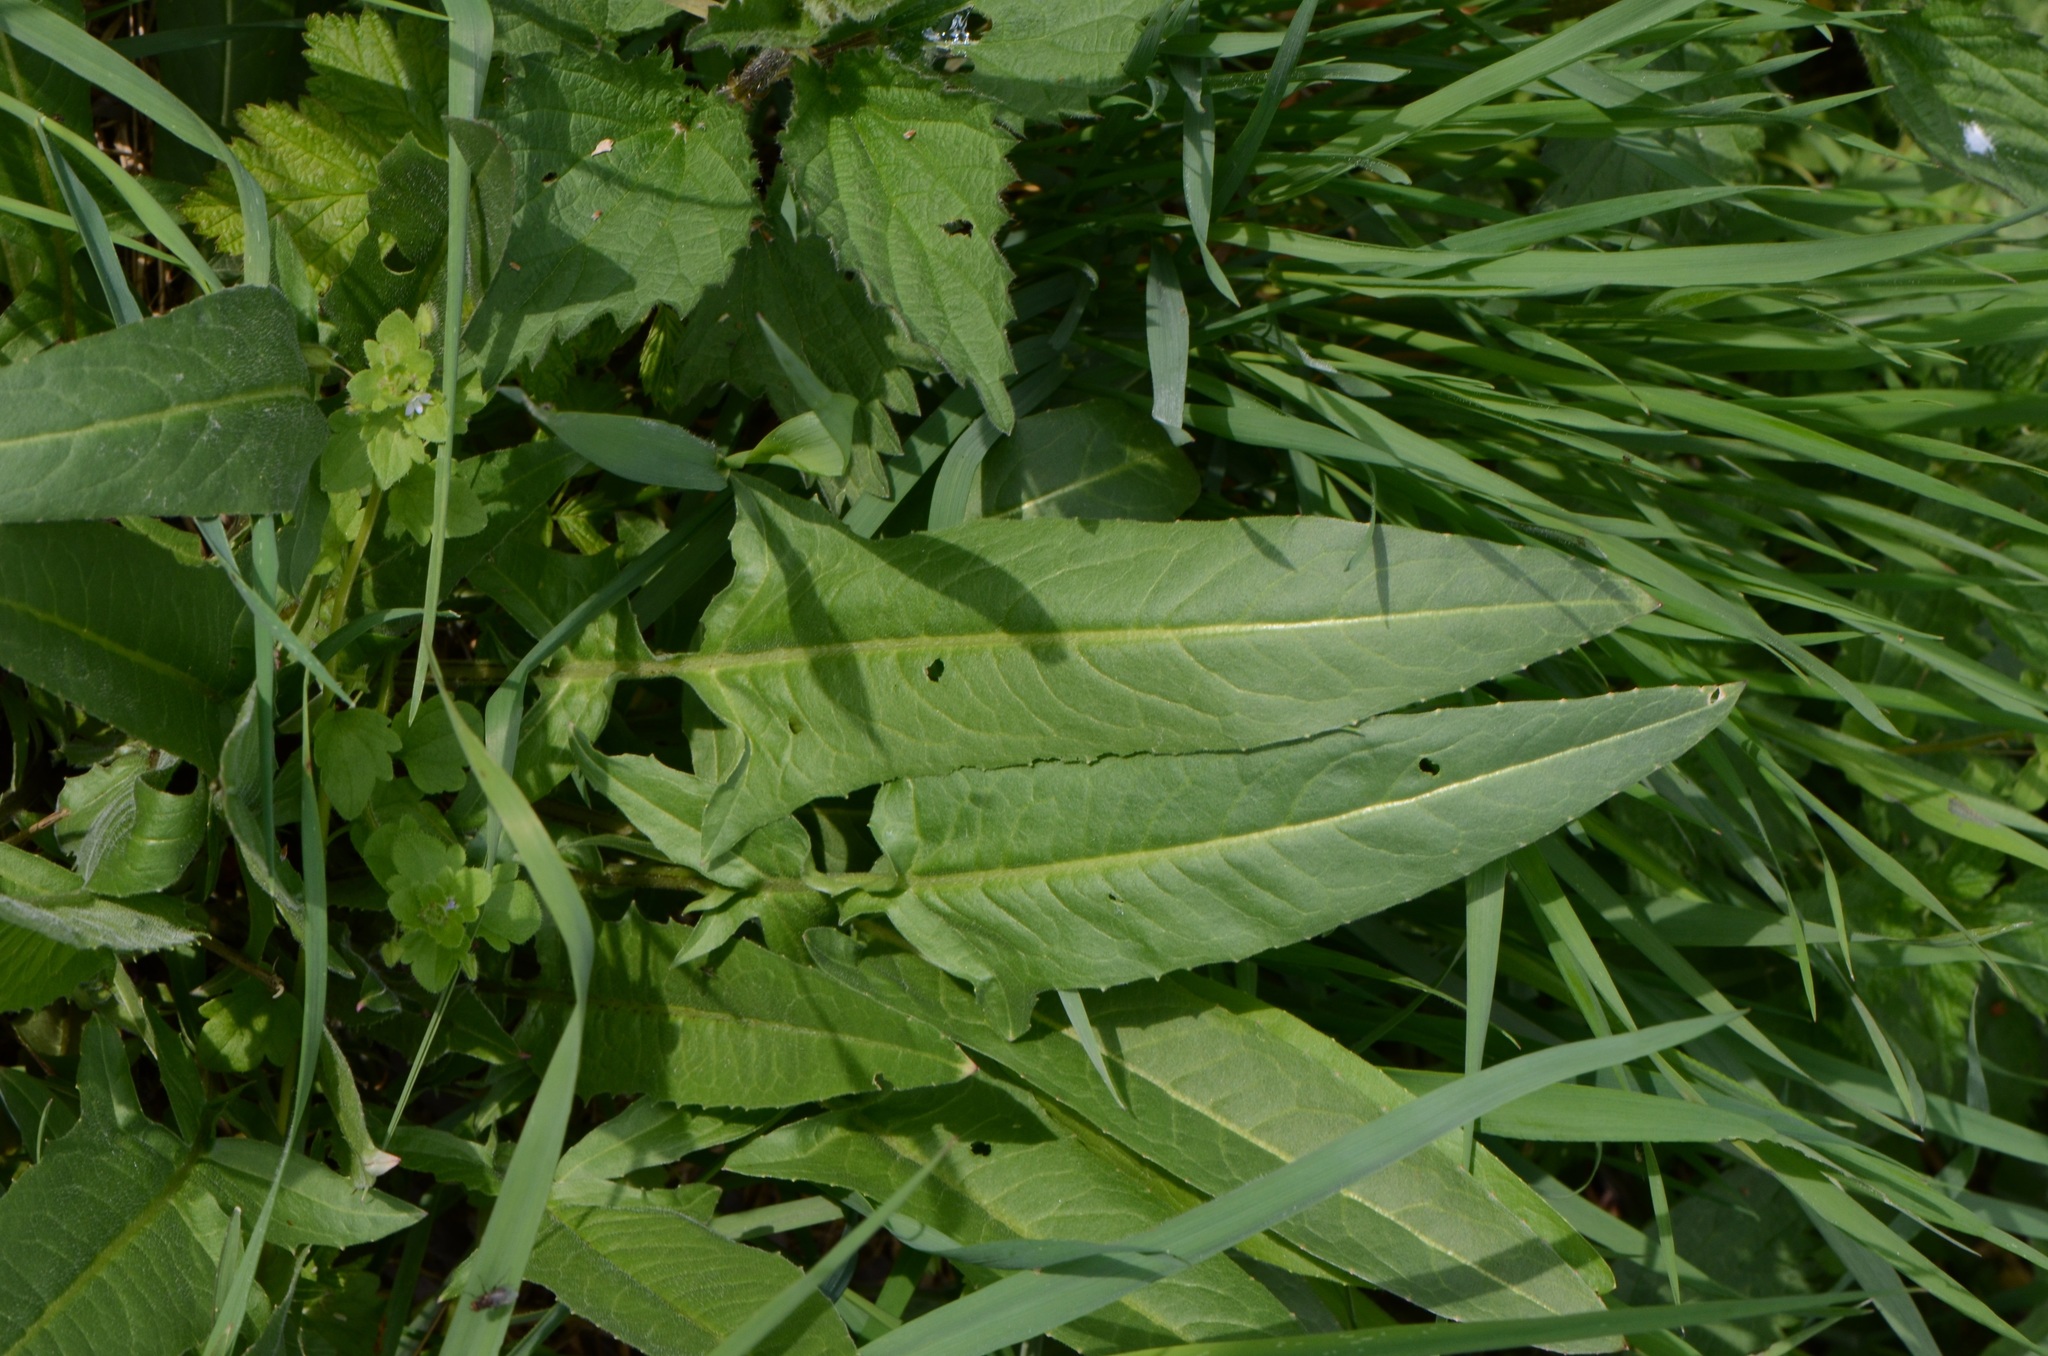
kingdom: Plantae
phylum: Tracheophyta
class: Magnoliopsida
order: Brassicales
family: Brassicaceae
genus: Bunias
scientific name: Bunias orientalis
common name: Warty-cabbage
